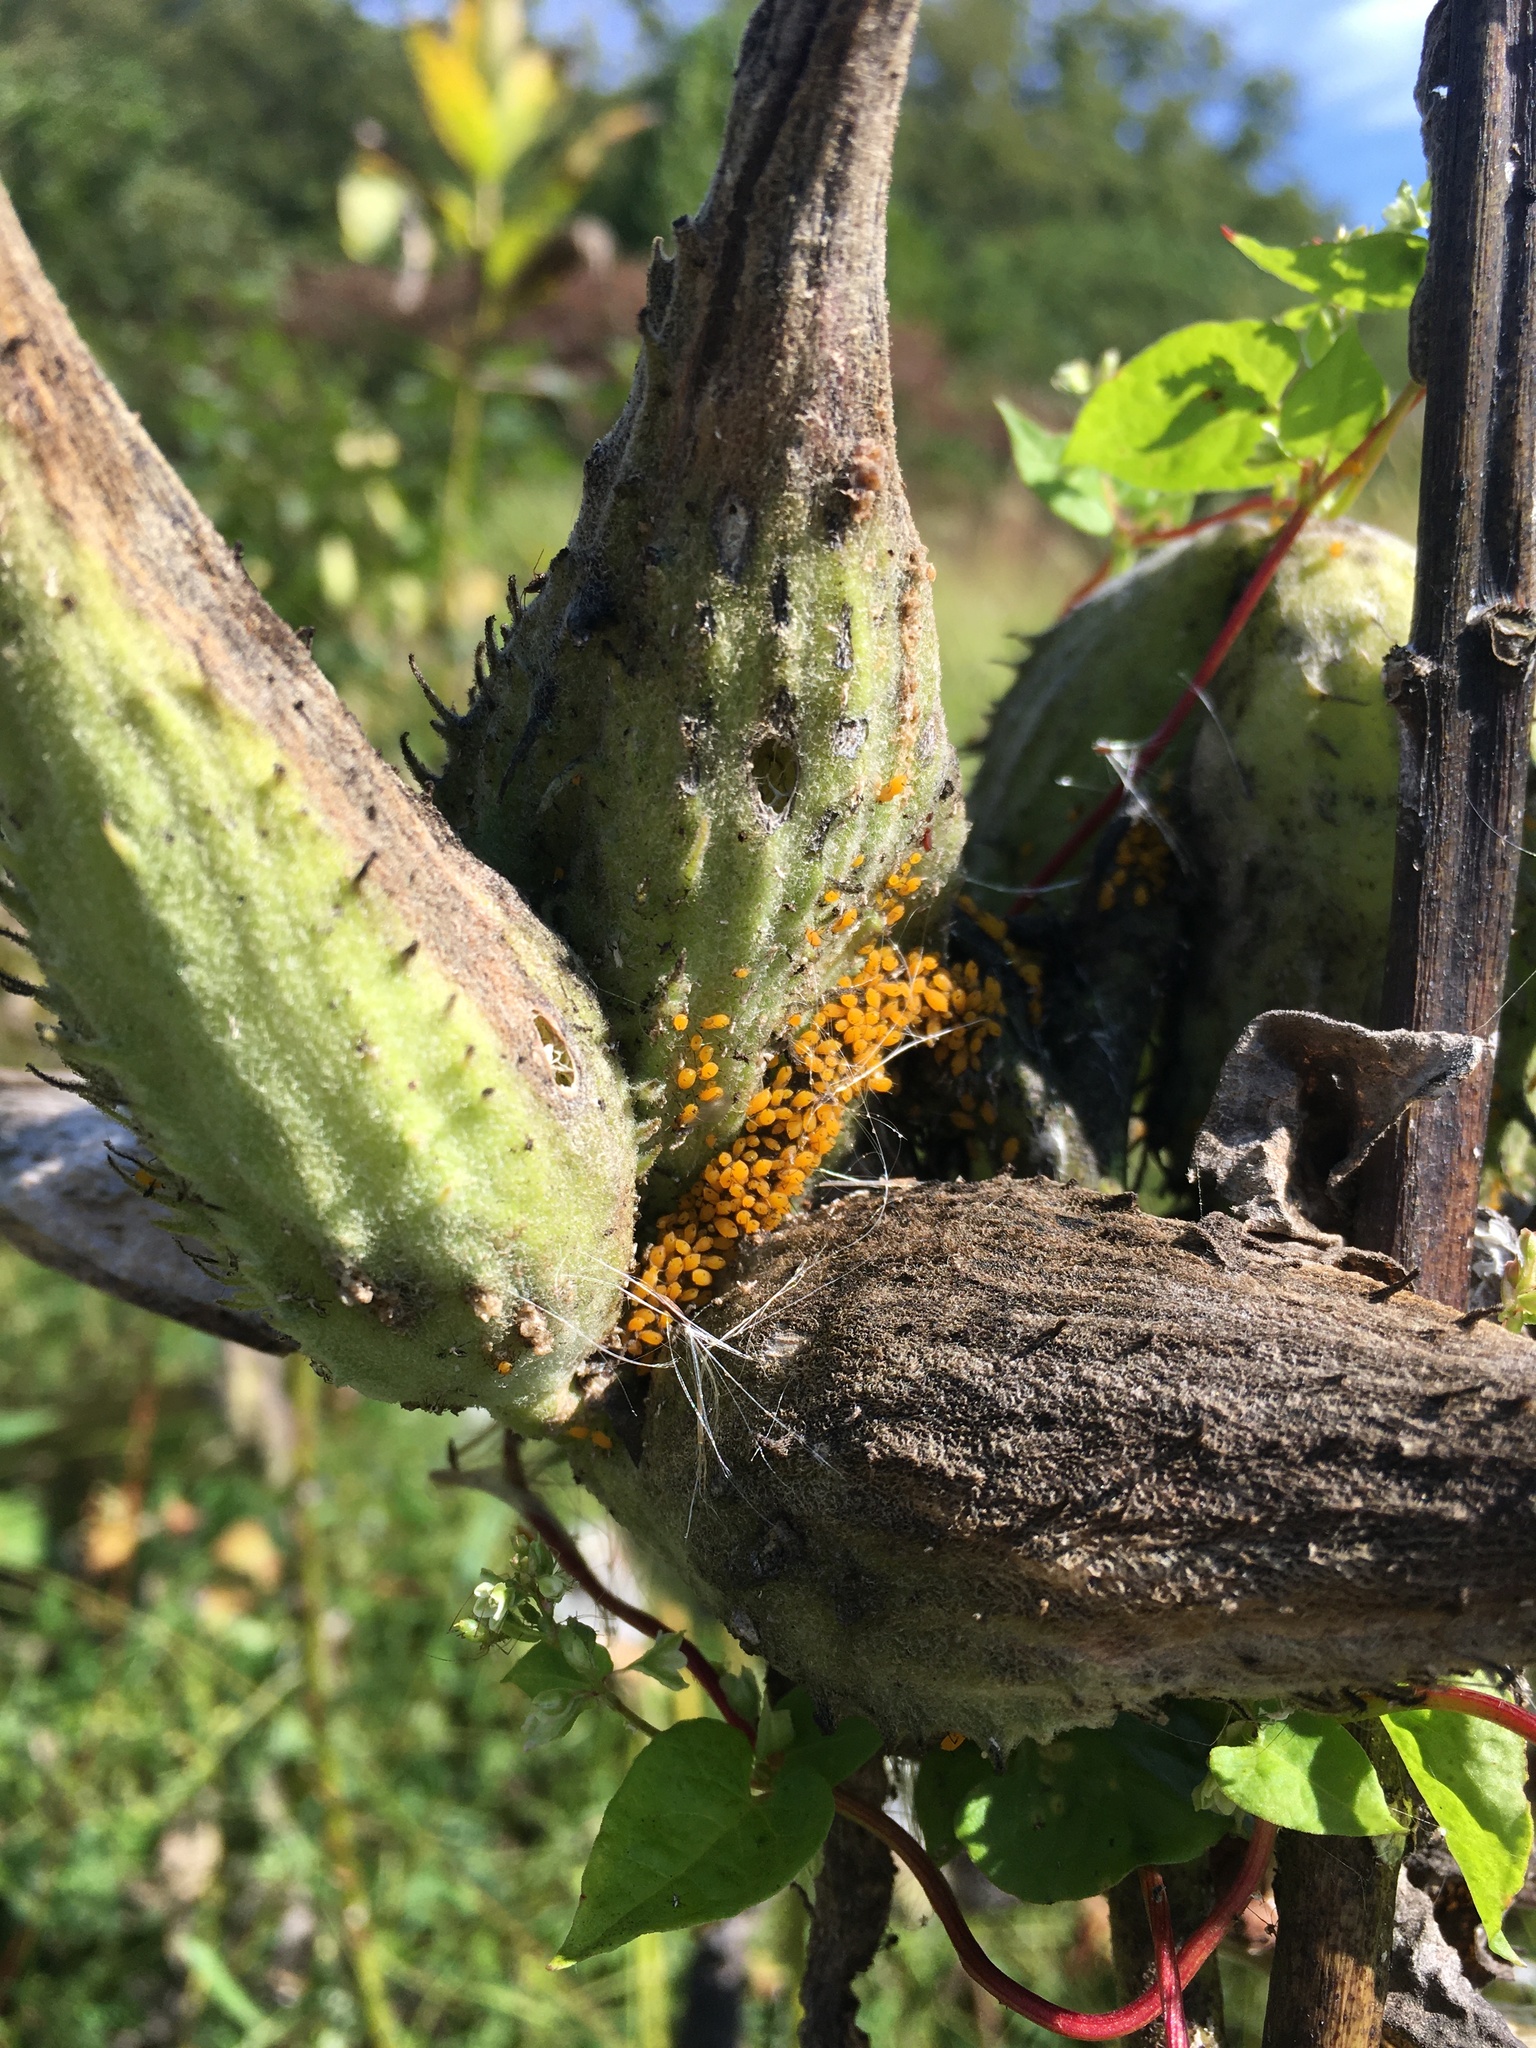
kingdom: Animalia
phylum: Arthropoda
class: Insecta
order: Hemiptera
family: Aphididae
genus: Aphis
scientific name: Aphis nerii
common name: Oleander aphid
